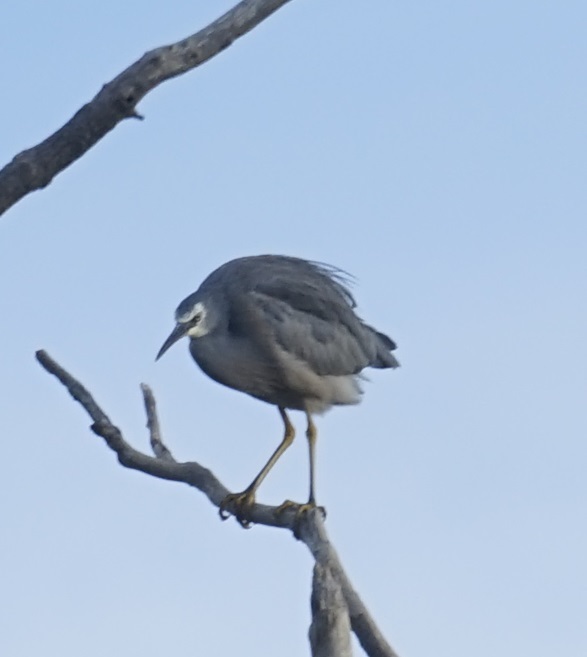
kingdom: Animalia
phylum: Chordata
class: Aves
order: Pelecaniformes
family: Ardeidae
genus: Egretta
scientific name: Egretta novaehollandiae
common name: White-faced heron
